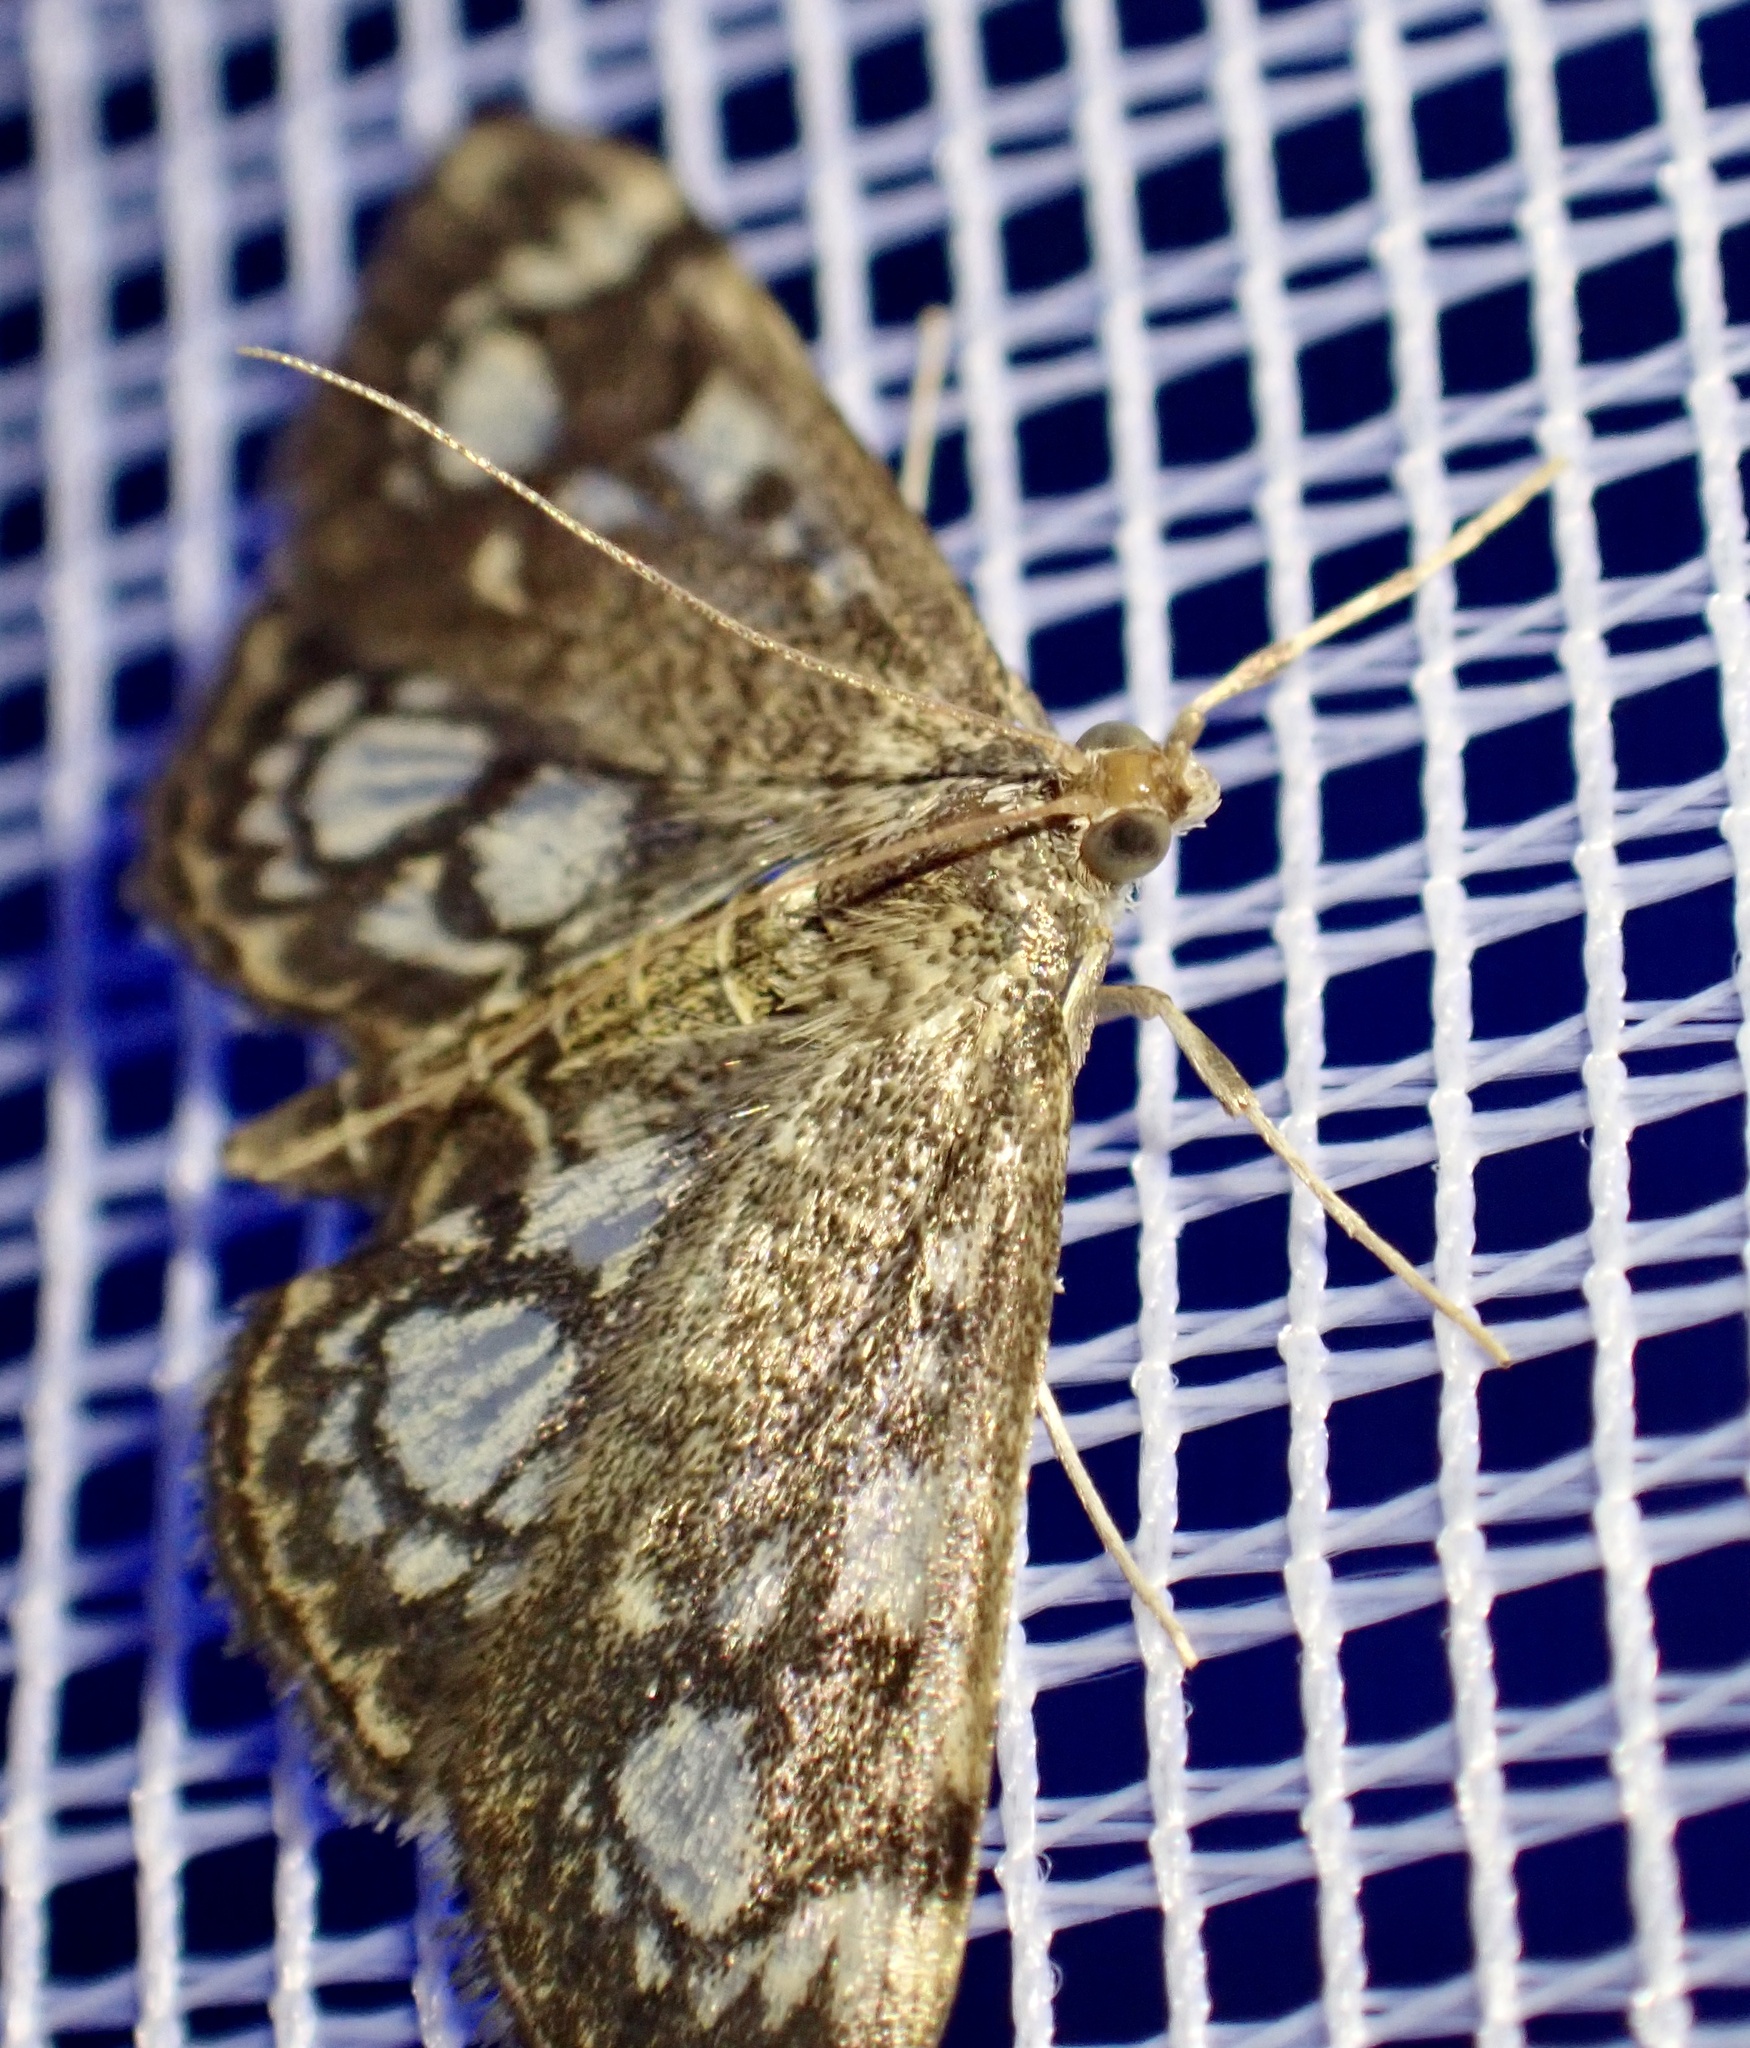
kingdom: Animalia
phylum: Arthropoda
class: Insecta
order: Lepidoptera
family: Crambidae
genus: Anania
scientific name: Anania coronata
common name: Elder pearl
